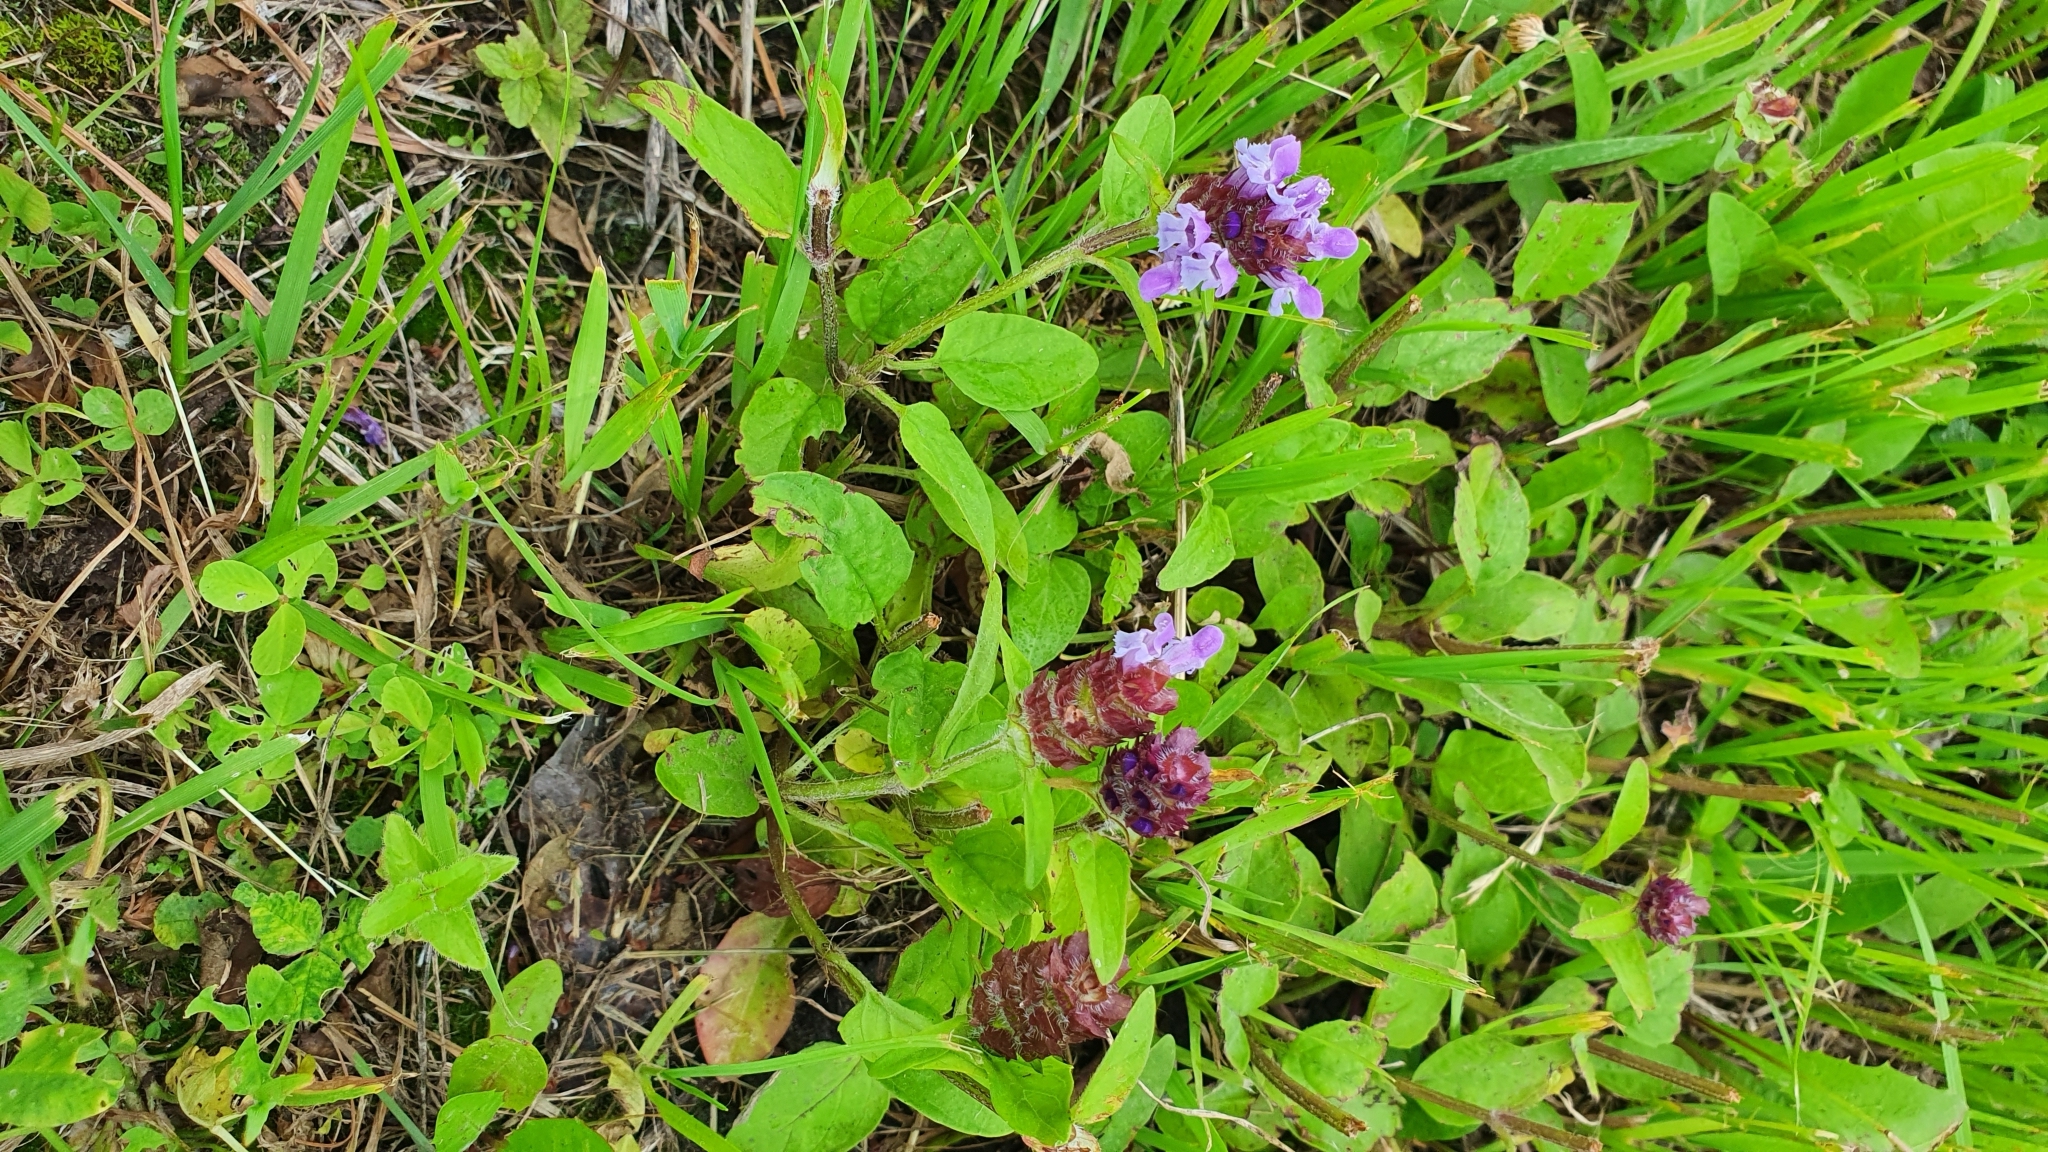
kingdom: Plantae
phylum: Tracheophyta
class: Magnoliopsida
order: Lamiales
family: Lamiaceae
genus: Prunella
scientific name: Prunella vulgaris
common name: Heal-all
